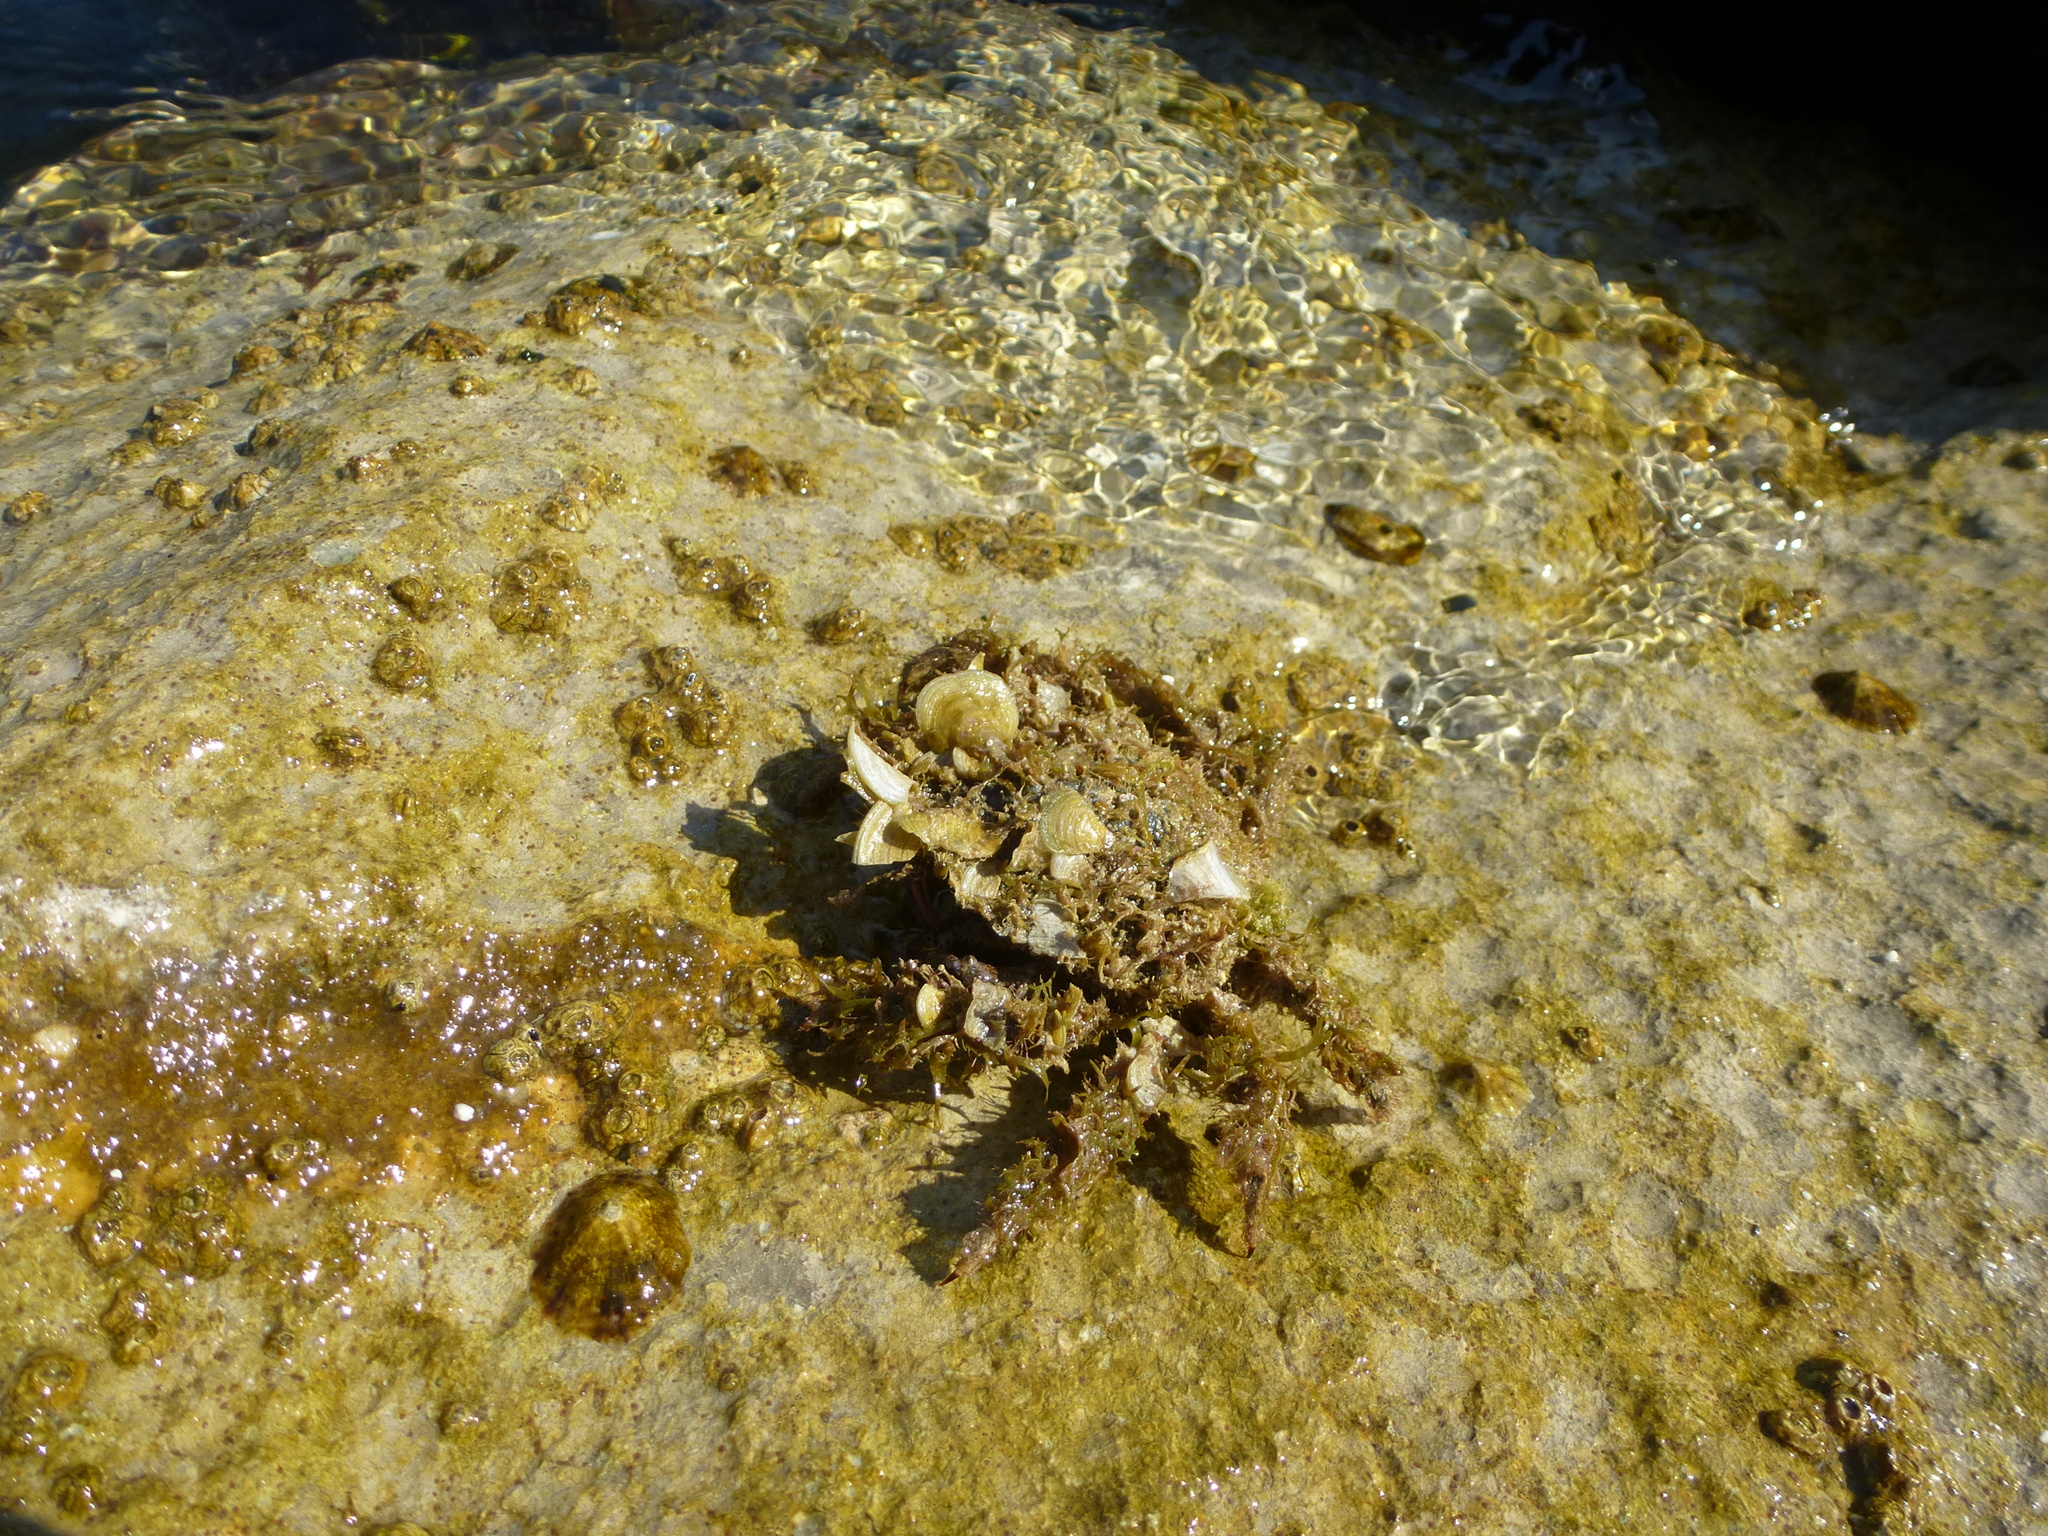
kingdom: Animalia
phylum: Arthropoda
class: Malacostraca
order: Decapoda
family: Majidae
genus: Maja
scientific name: Maja crispata
